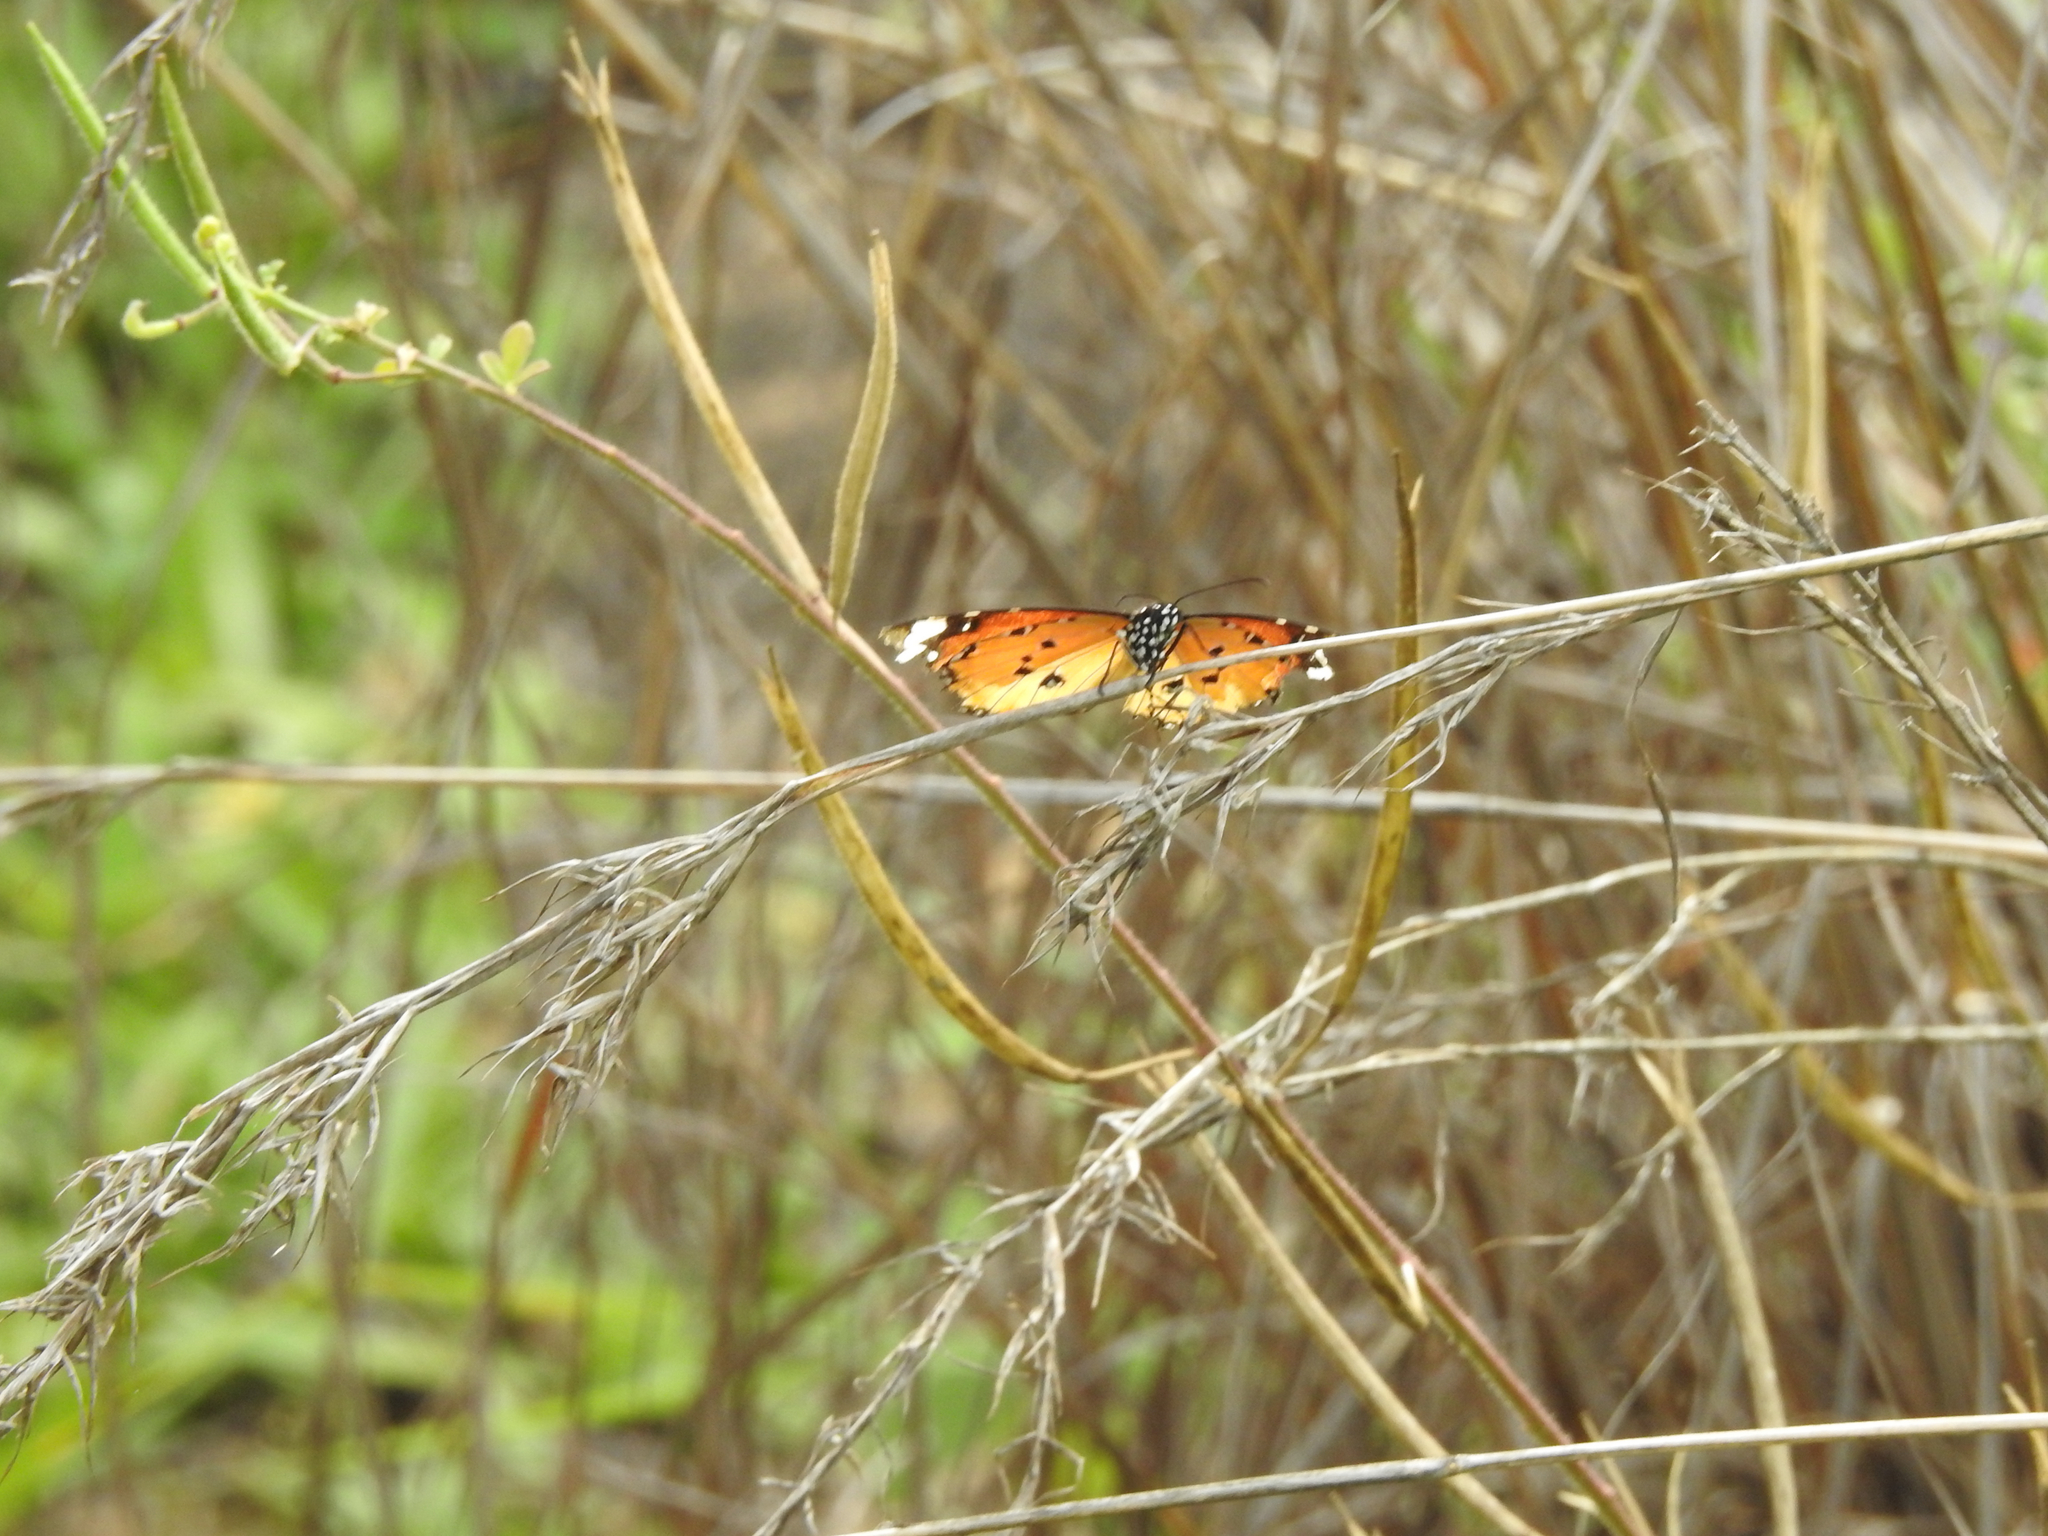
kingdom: Animalia
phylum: Arthropoda
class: Insecta
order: Lepidoptera
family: Nymphalidae
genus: Danaus
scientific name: Danaus chrysippus
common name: Plain tiger
